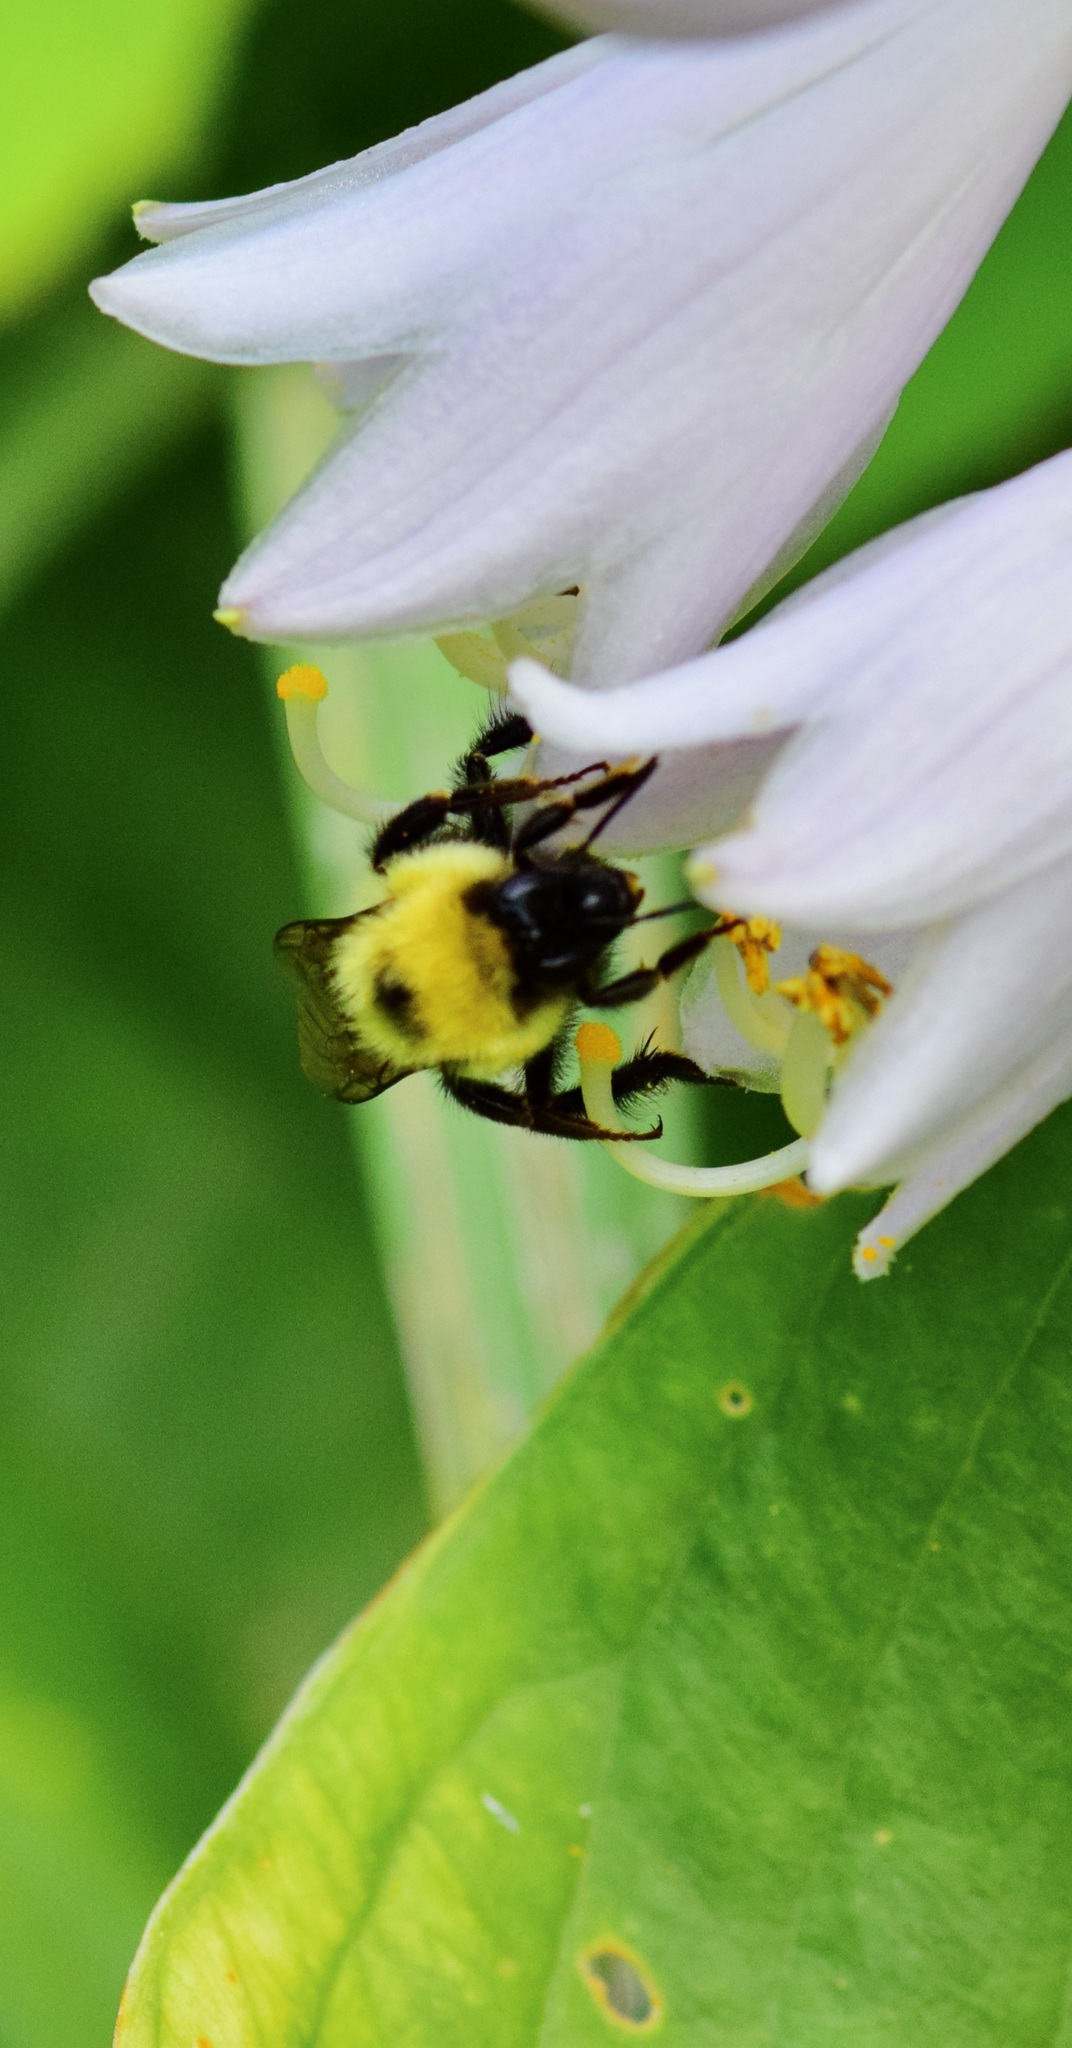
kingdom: Animalia
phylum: Arthropoda
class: Insecta
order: Hymenoptera
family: Apidae
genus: Bombus
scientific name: Bombus bimaculatus
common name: Two-spotted bumble bee
